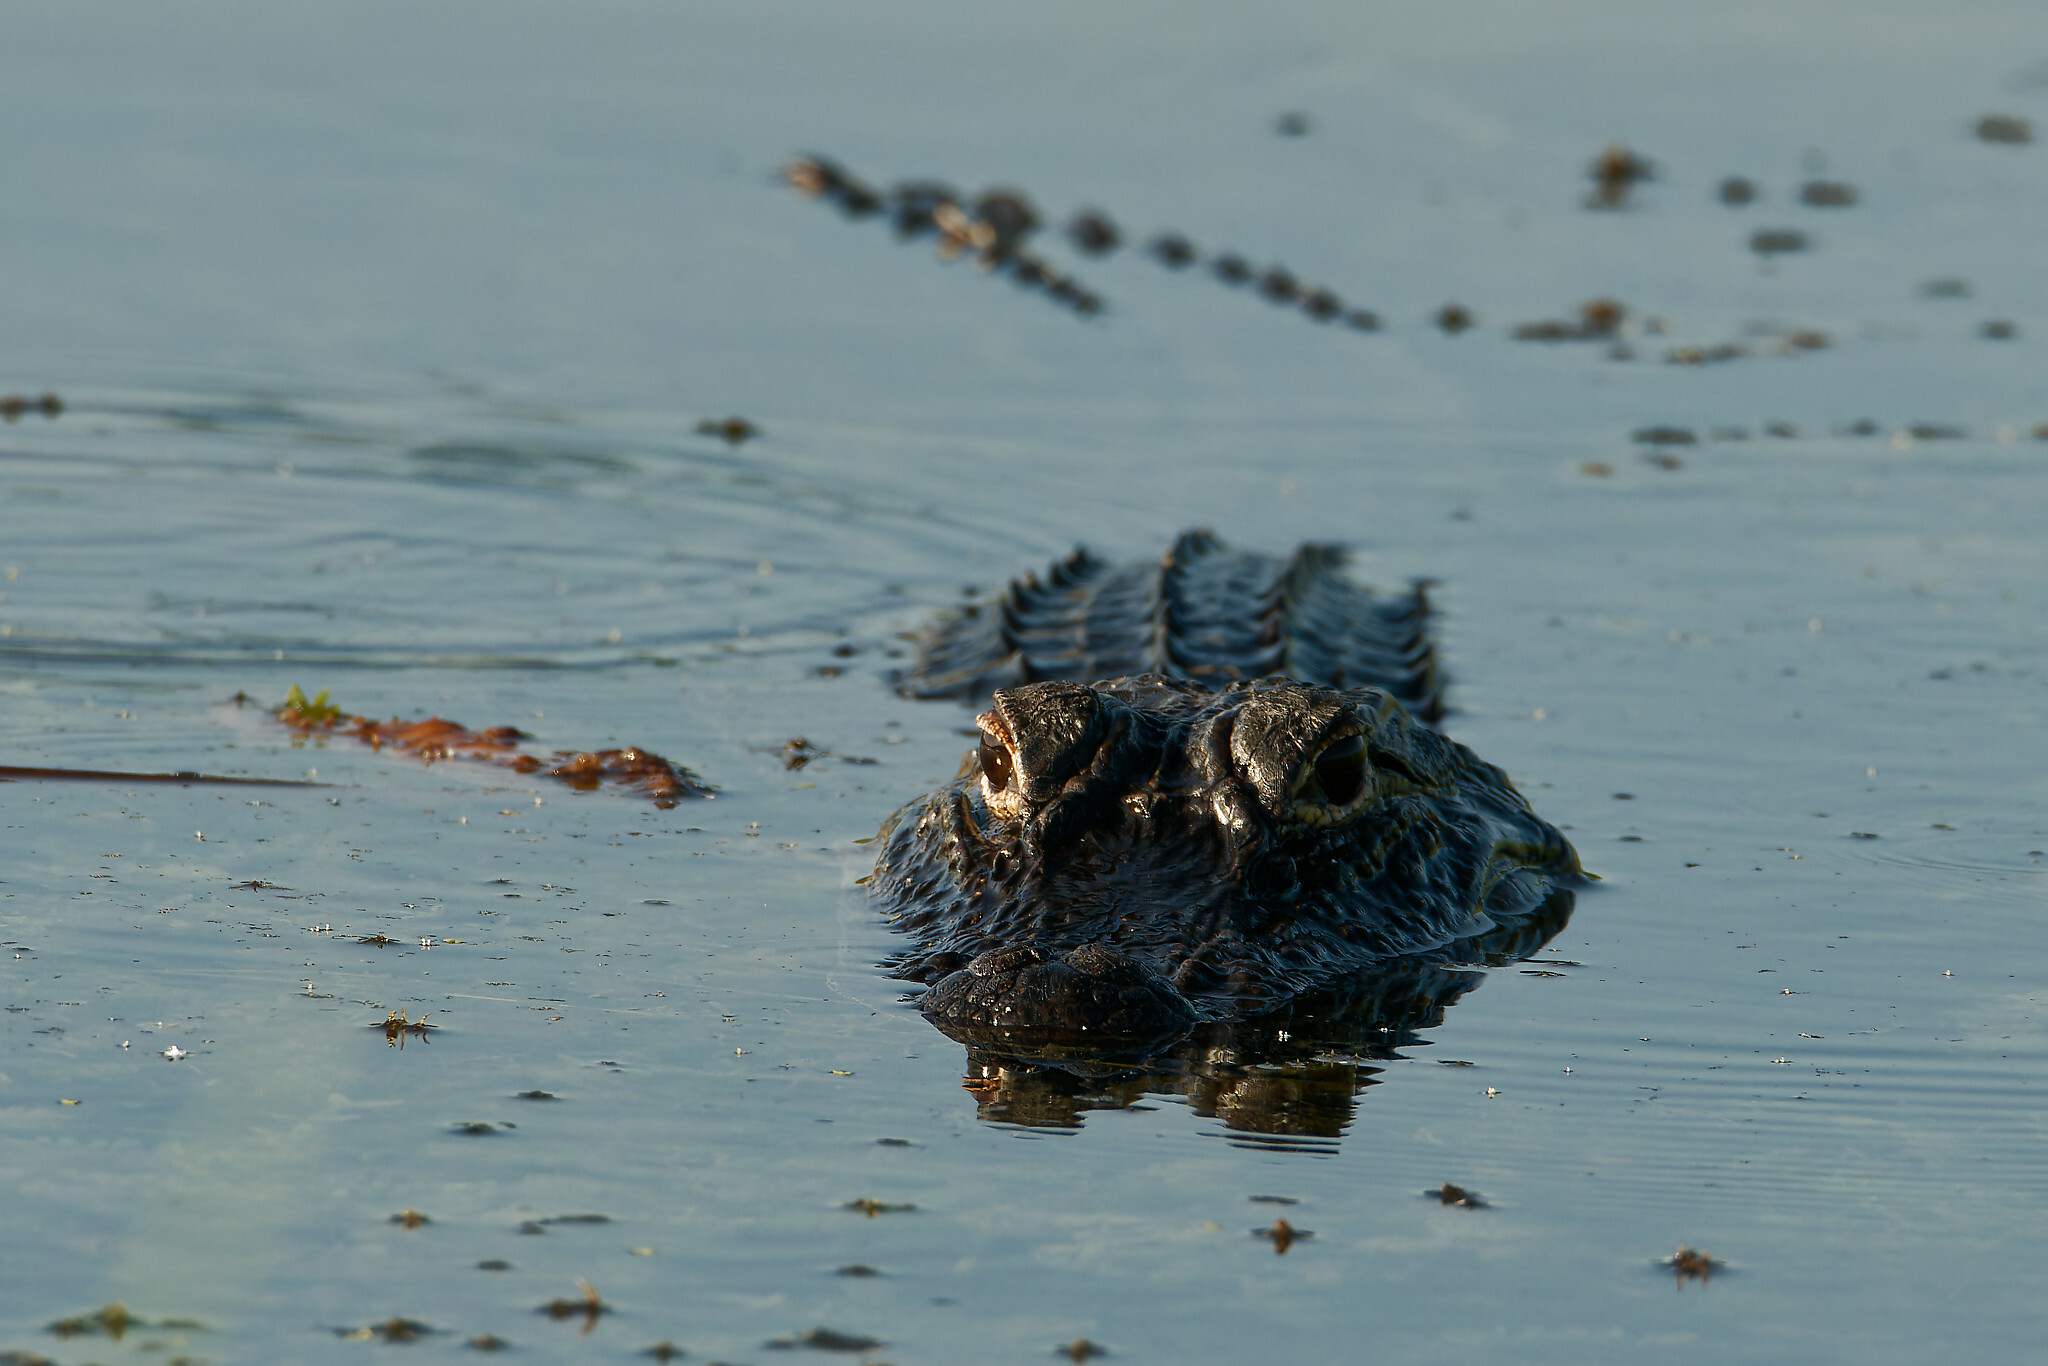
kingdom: Animalia
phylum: Chordata
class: Crocodylia
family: Alligatoridae
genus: Alligator
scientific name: Alligator mississippiensis
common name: American alligator
